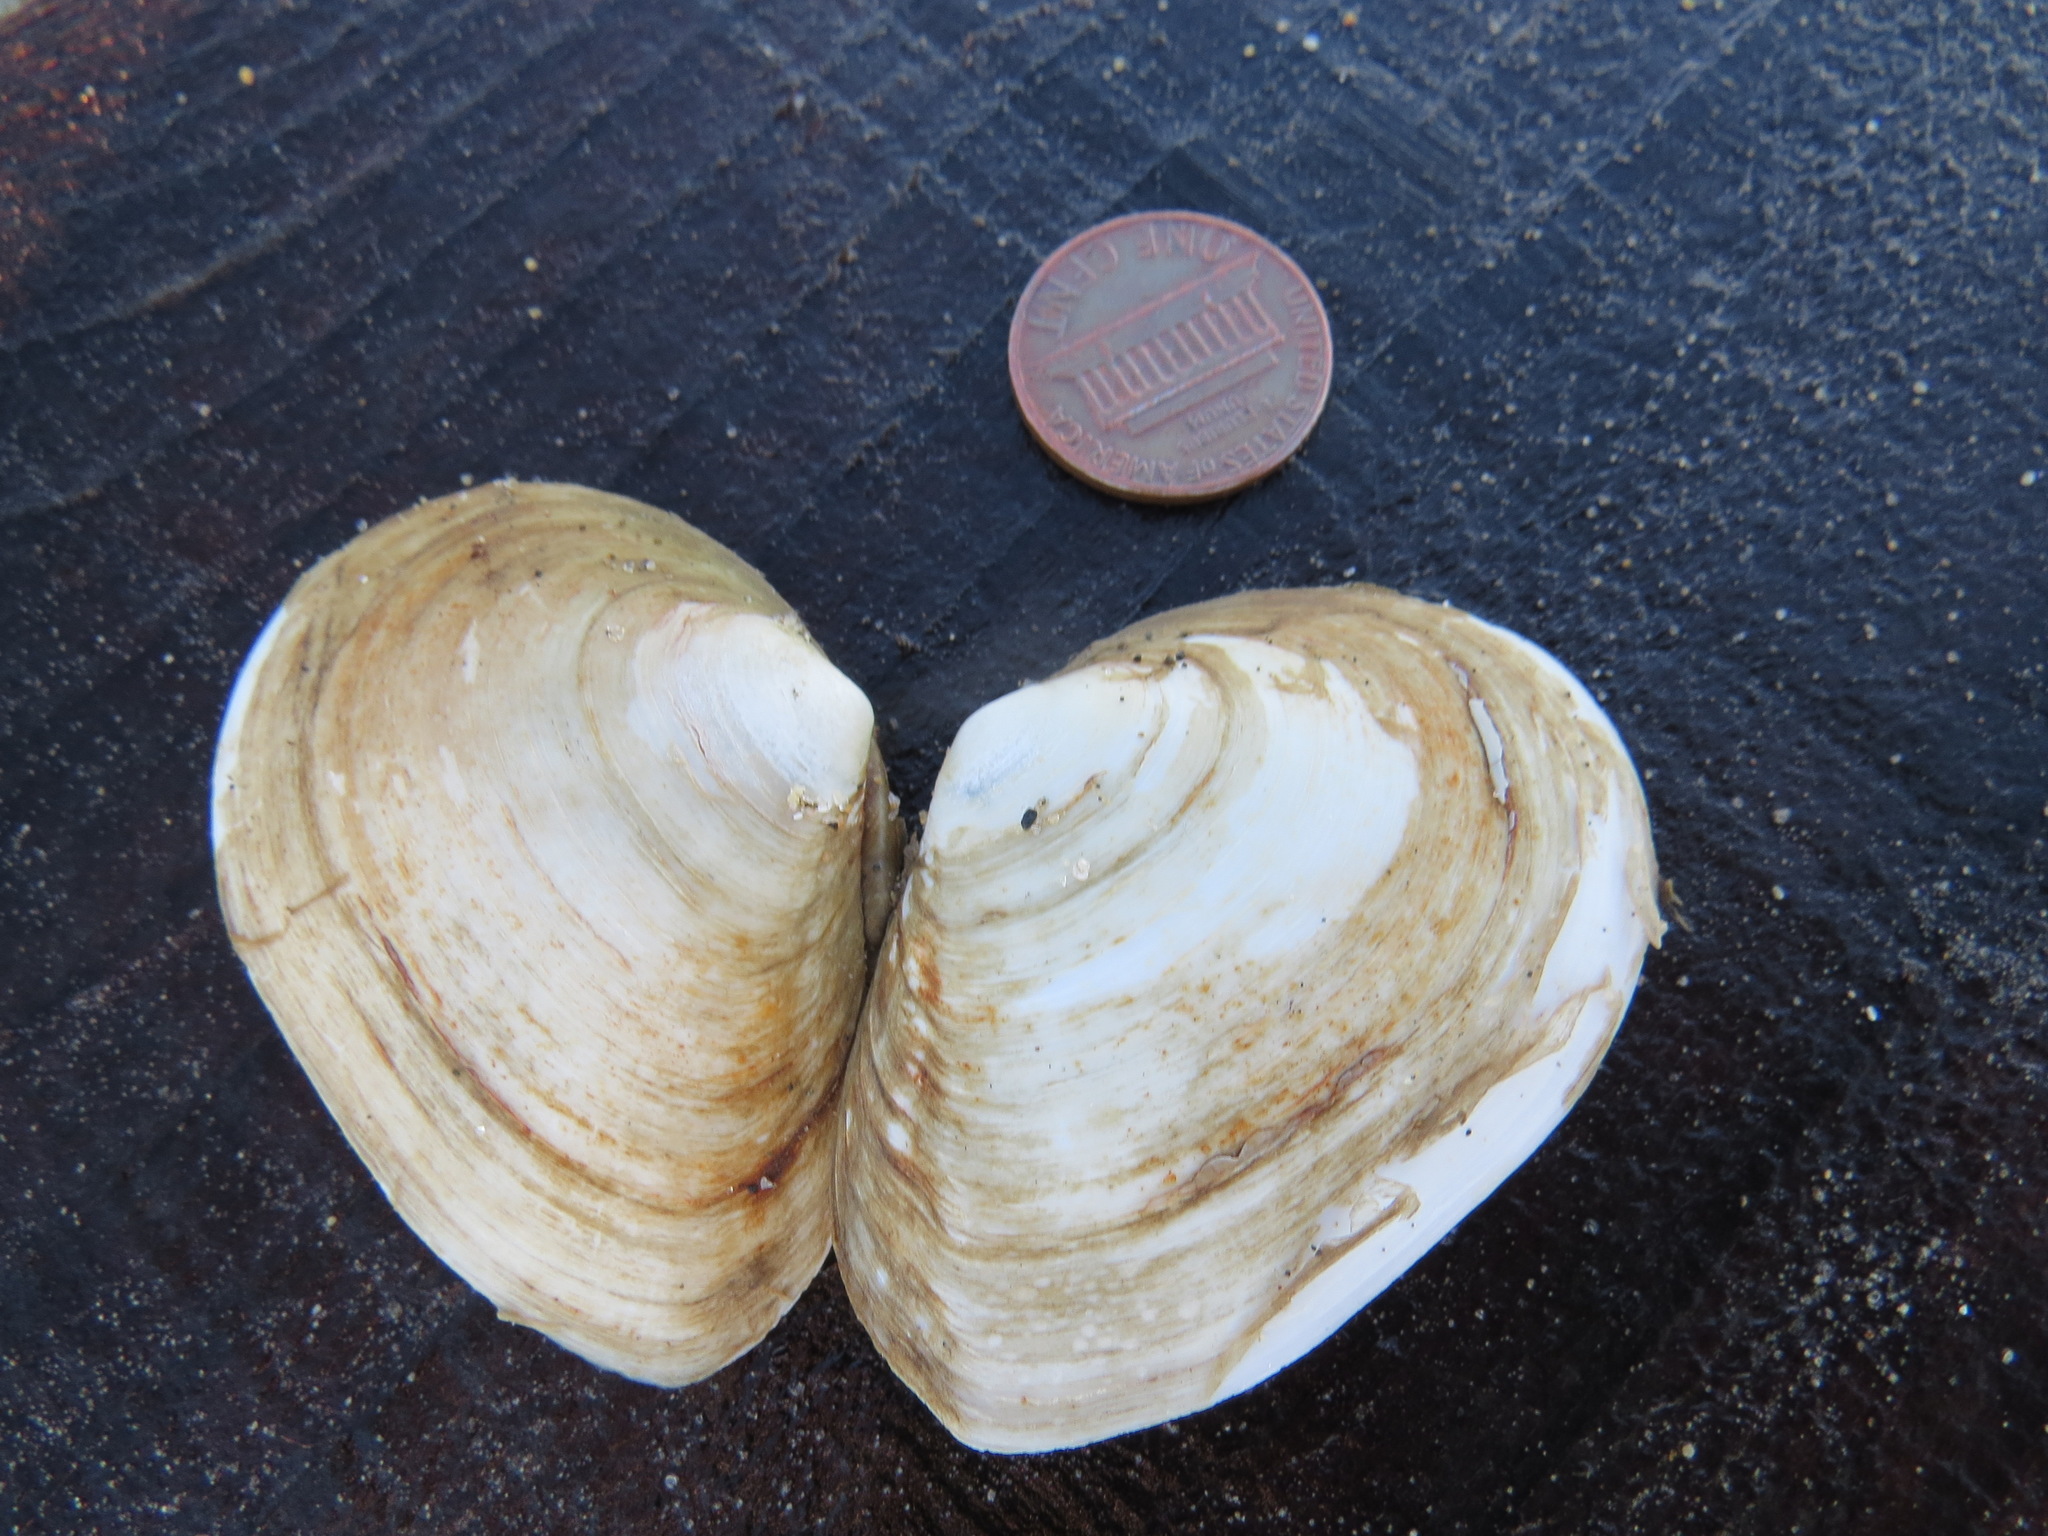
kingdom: Animalia
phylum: Mollusca
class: Bivalvia
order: Cardiida
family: Tellinidae
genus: Macoma
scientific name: Macoma nasuta
